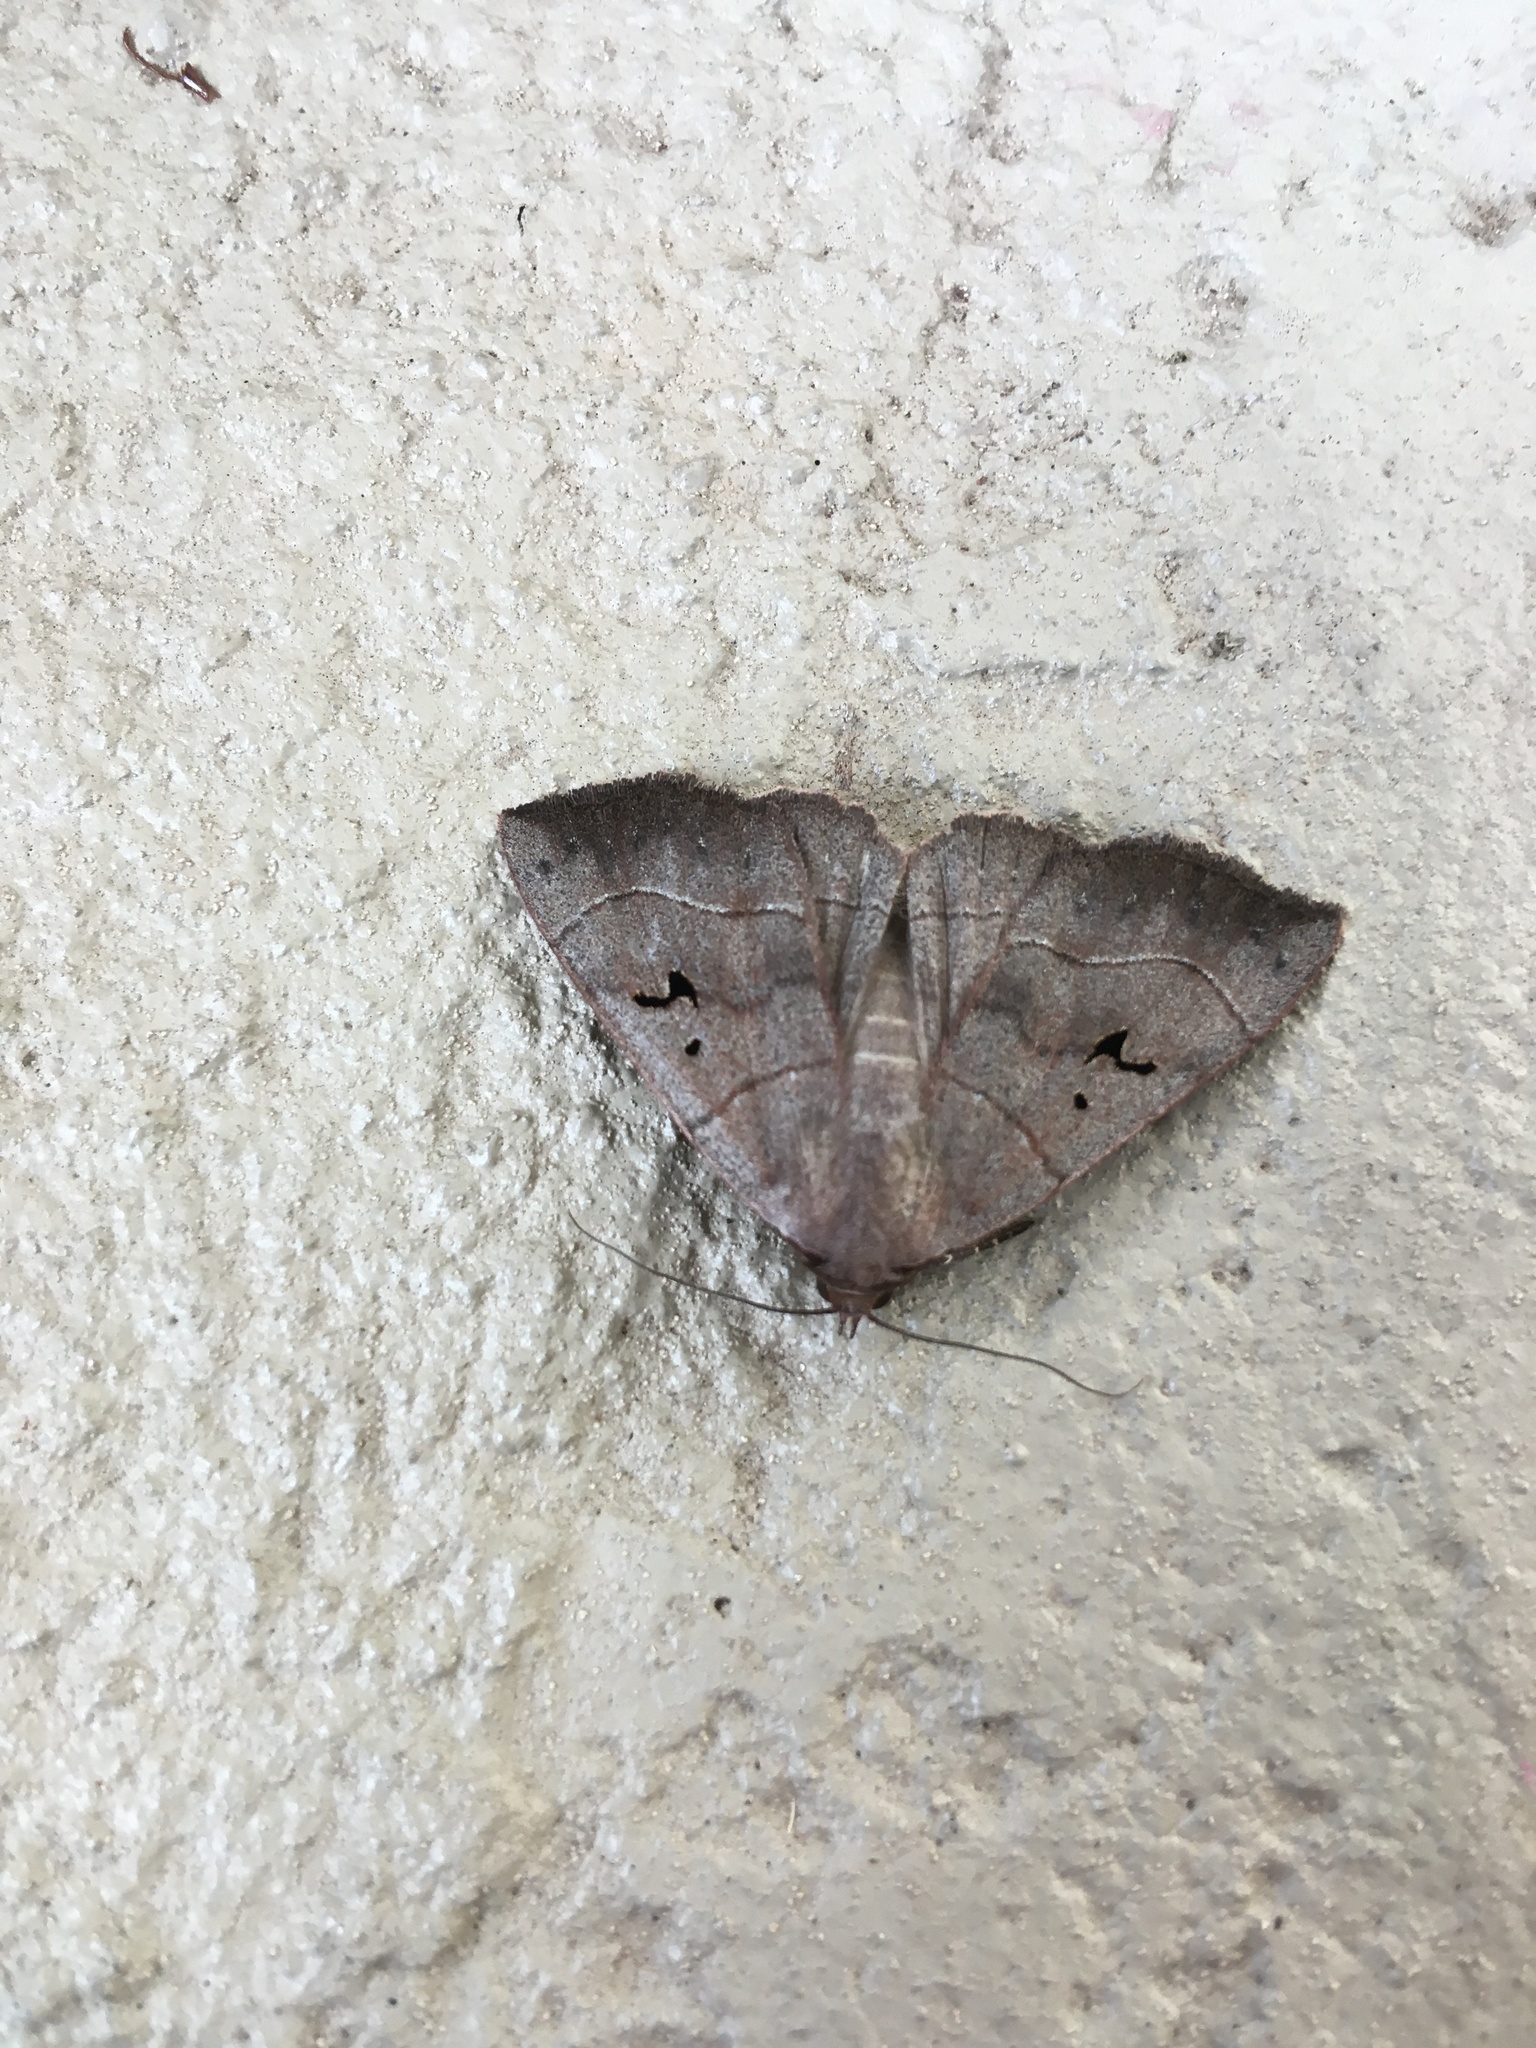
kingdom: Animalia
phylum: Arthropoda
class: Insecta
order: Lepidoptera
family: Erebidae
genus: Panopoda
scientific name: Panopoda carneicosta
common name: Brown panopoda moth
